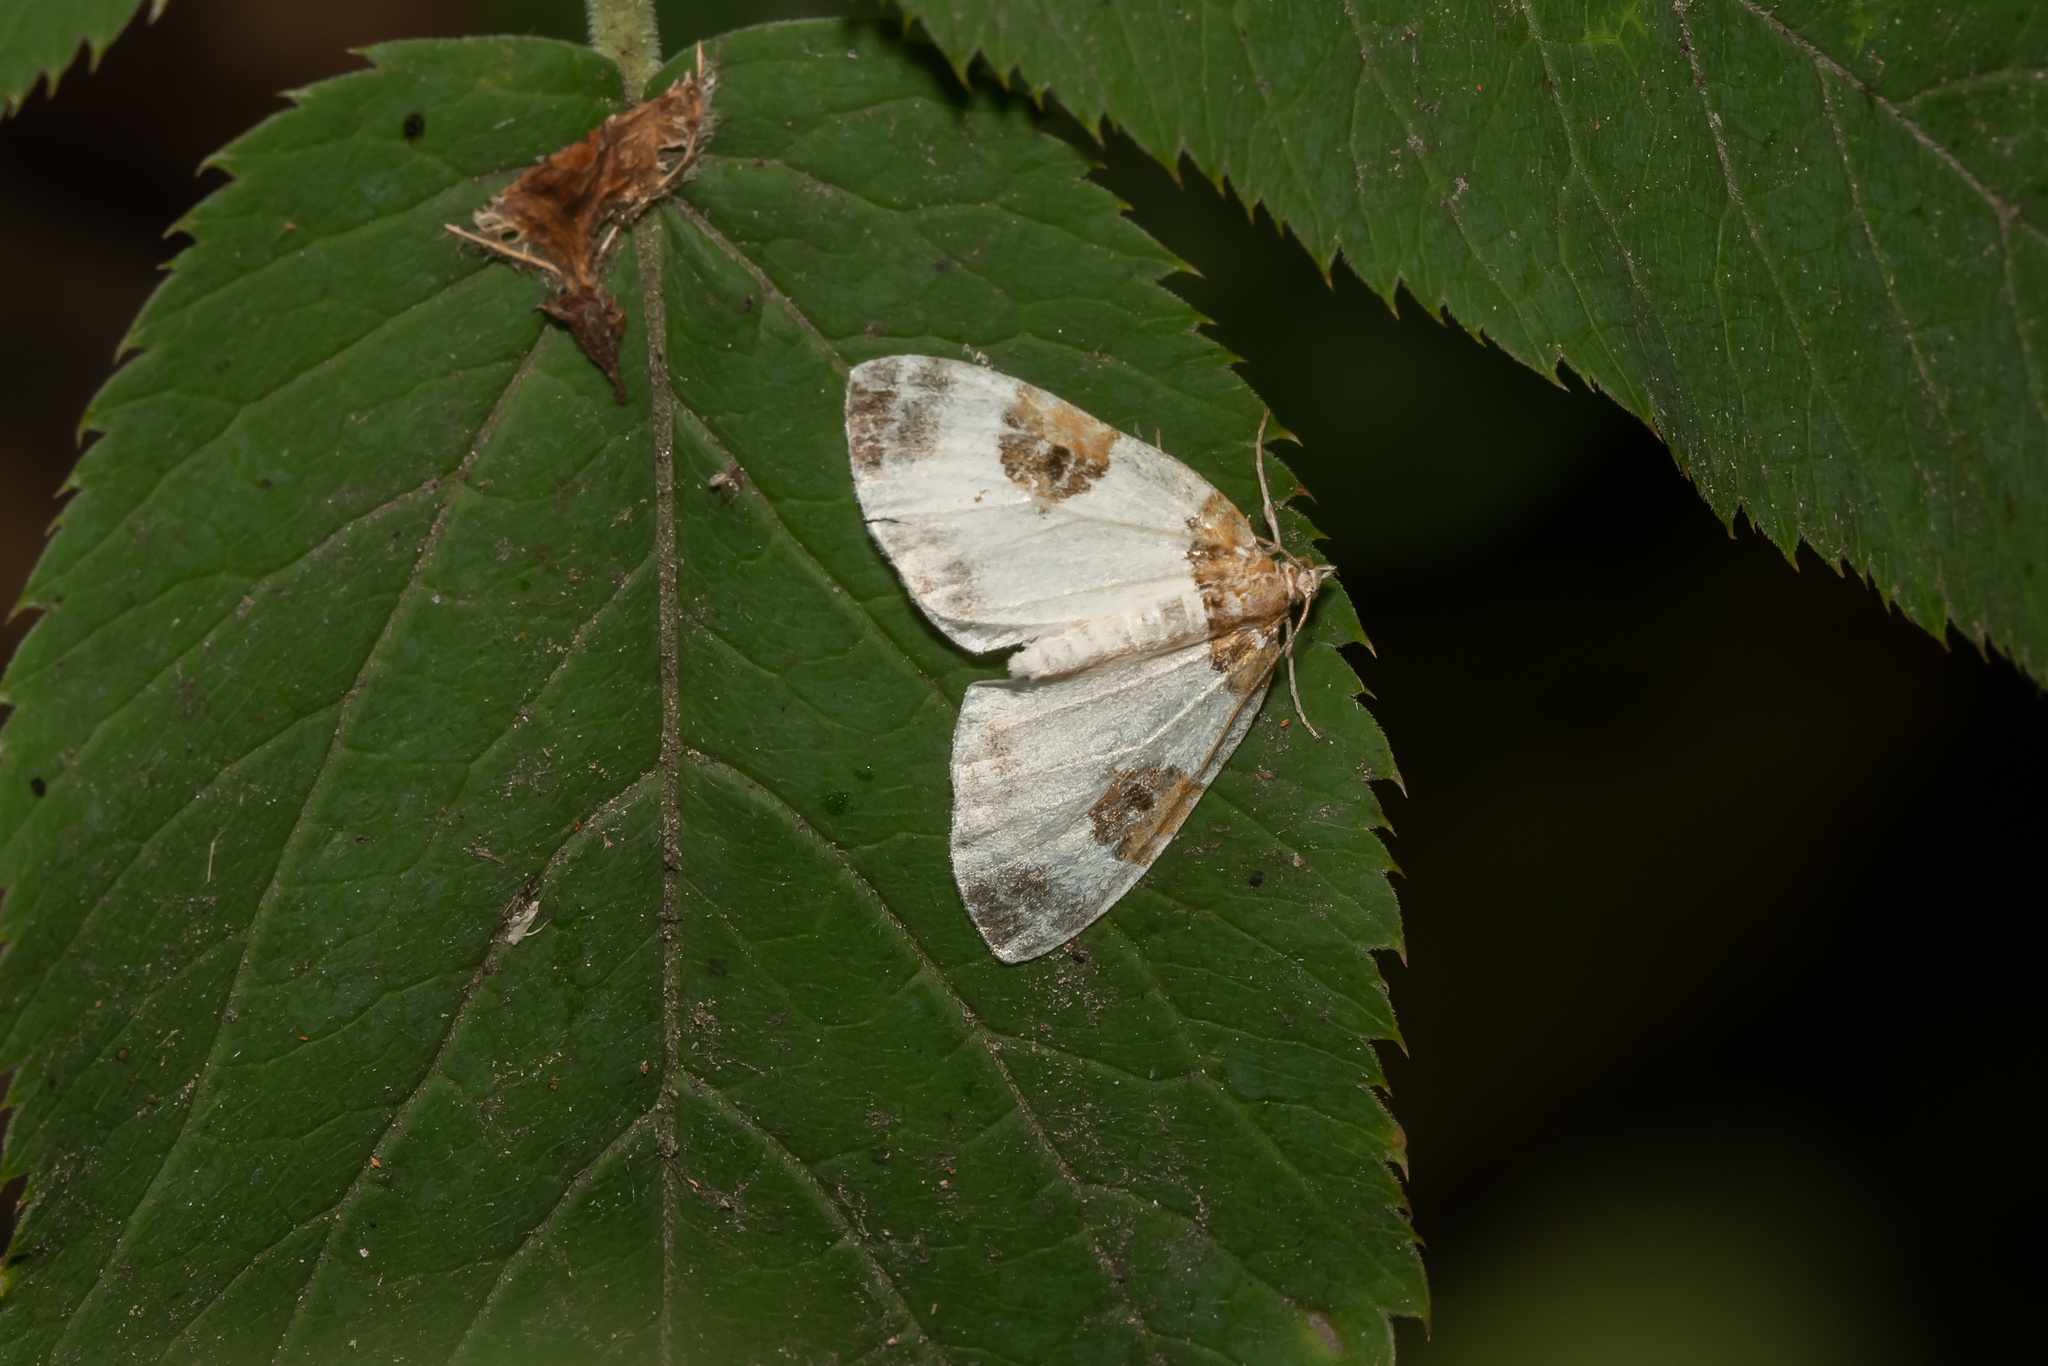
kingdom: Animalia
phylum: Arthropoda
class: Insecta
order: Lepidoptera
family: Geometridae
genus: Plemyria
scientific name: Plemyria rubiginata
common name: Blue-bordered carpet
